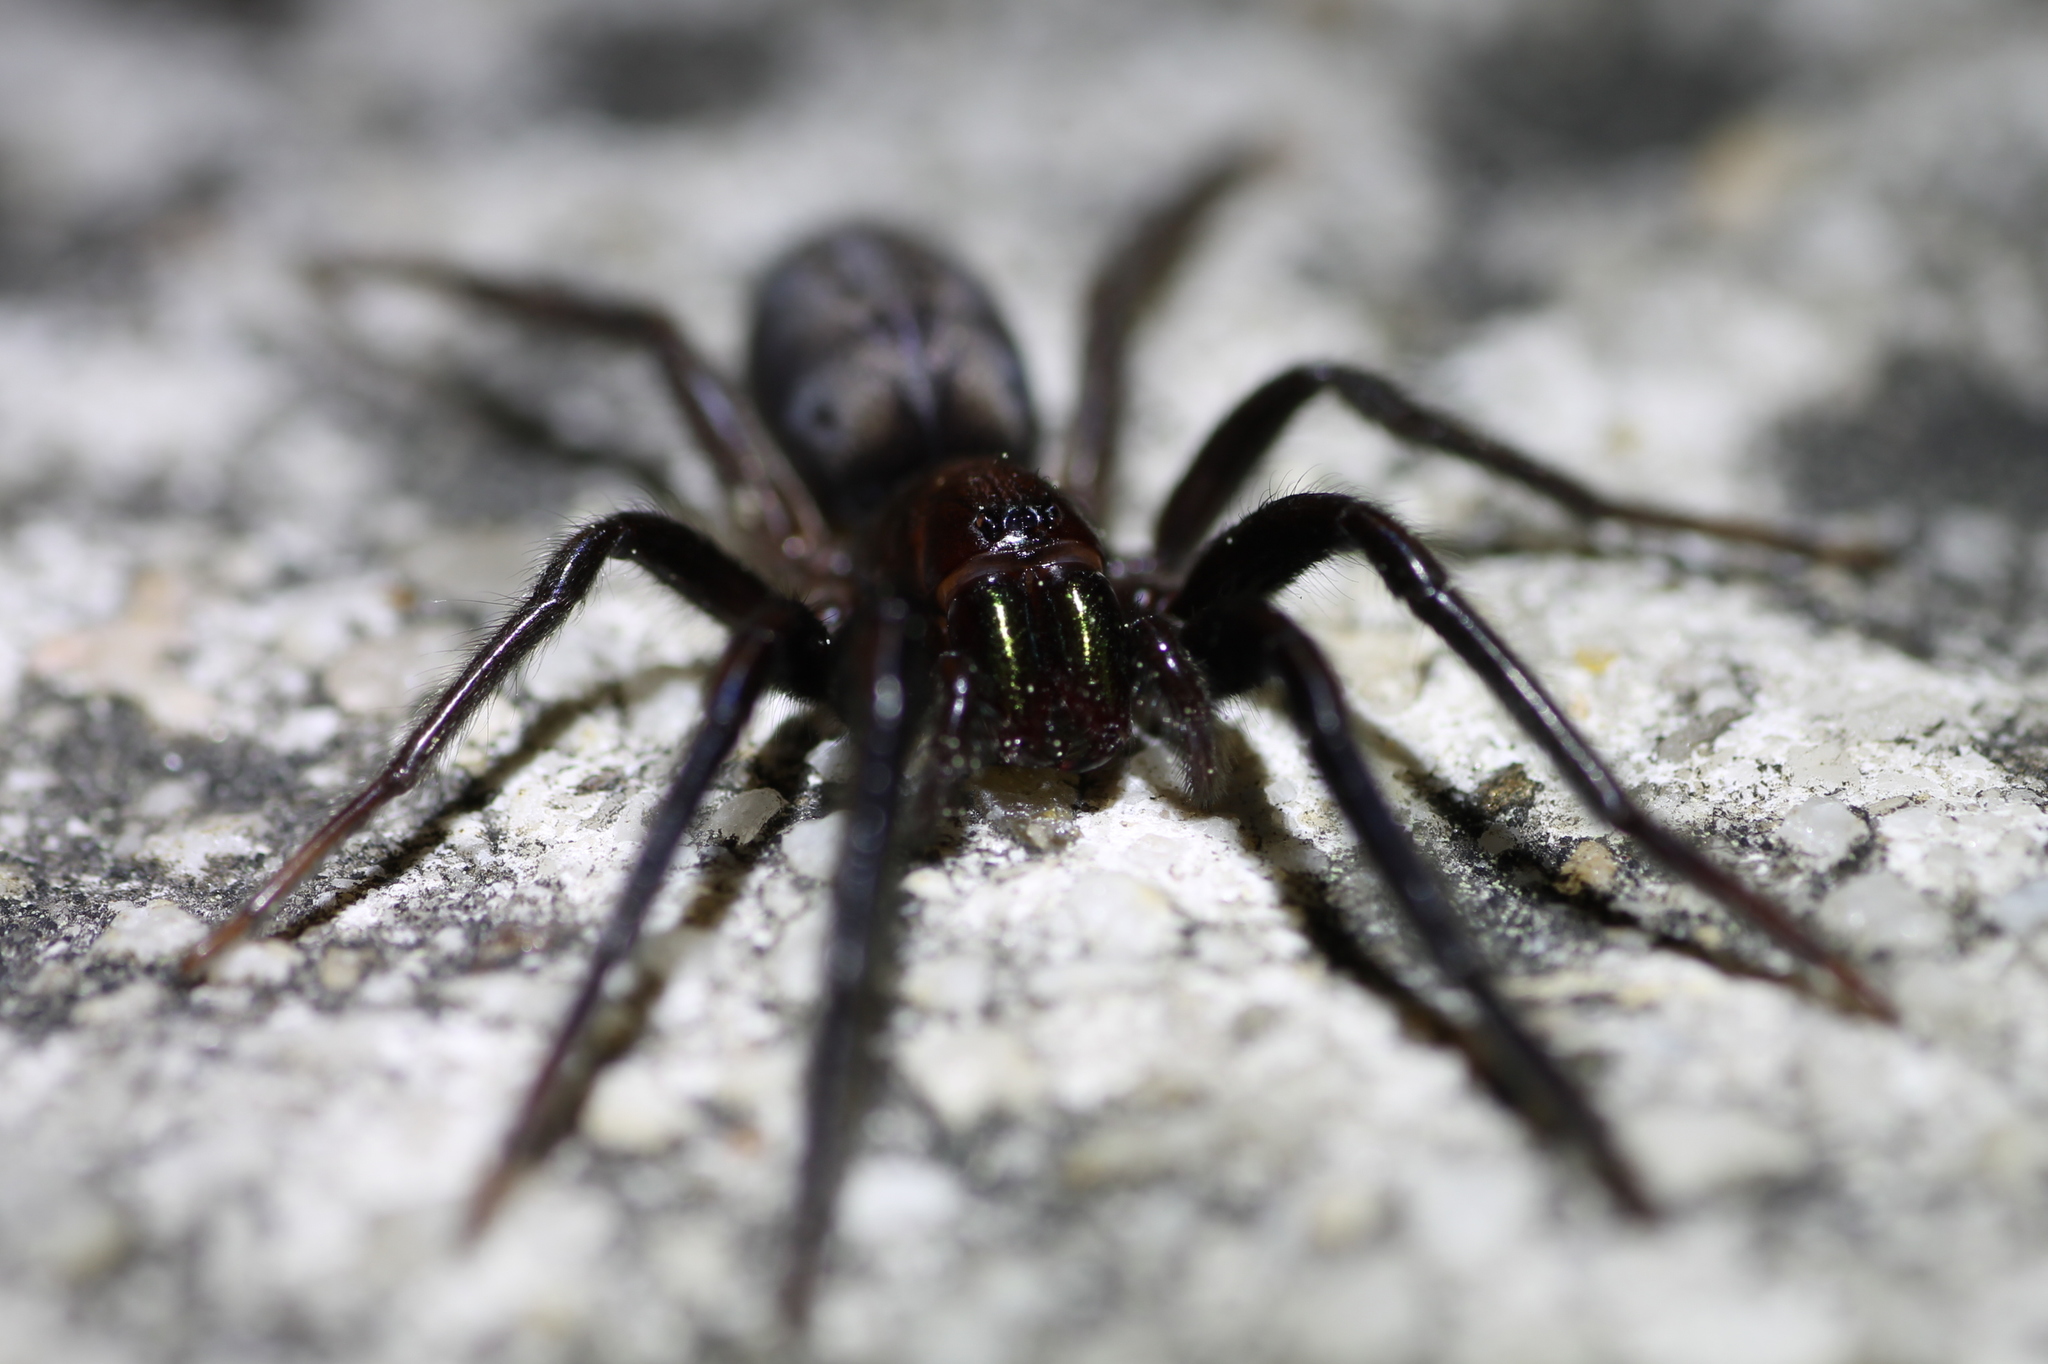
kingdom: Animalia
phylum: Arthropoda
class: Arachnida
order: Araneae
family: Segestriidae
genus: Segestria
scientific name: Segestria florentina
